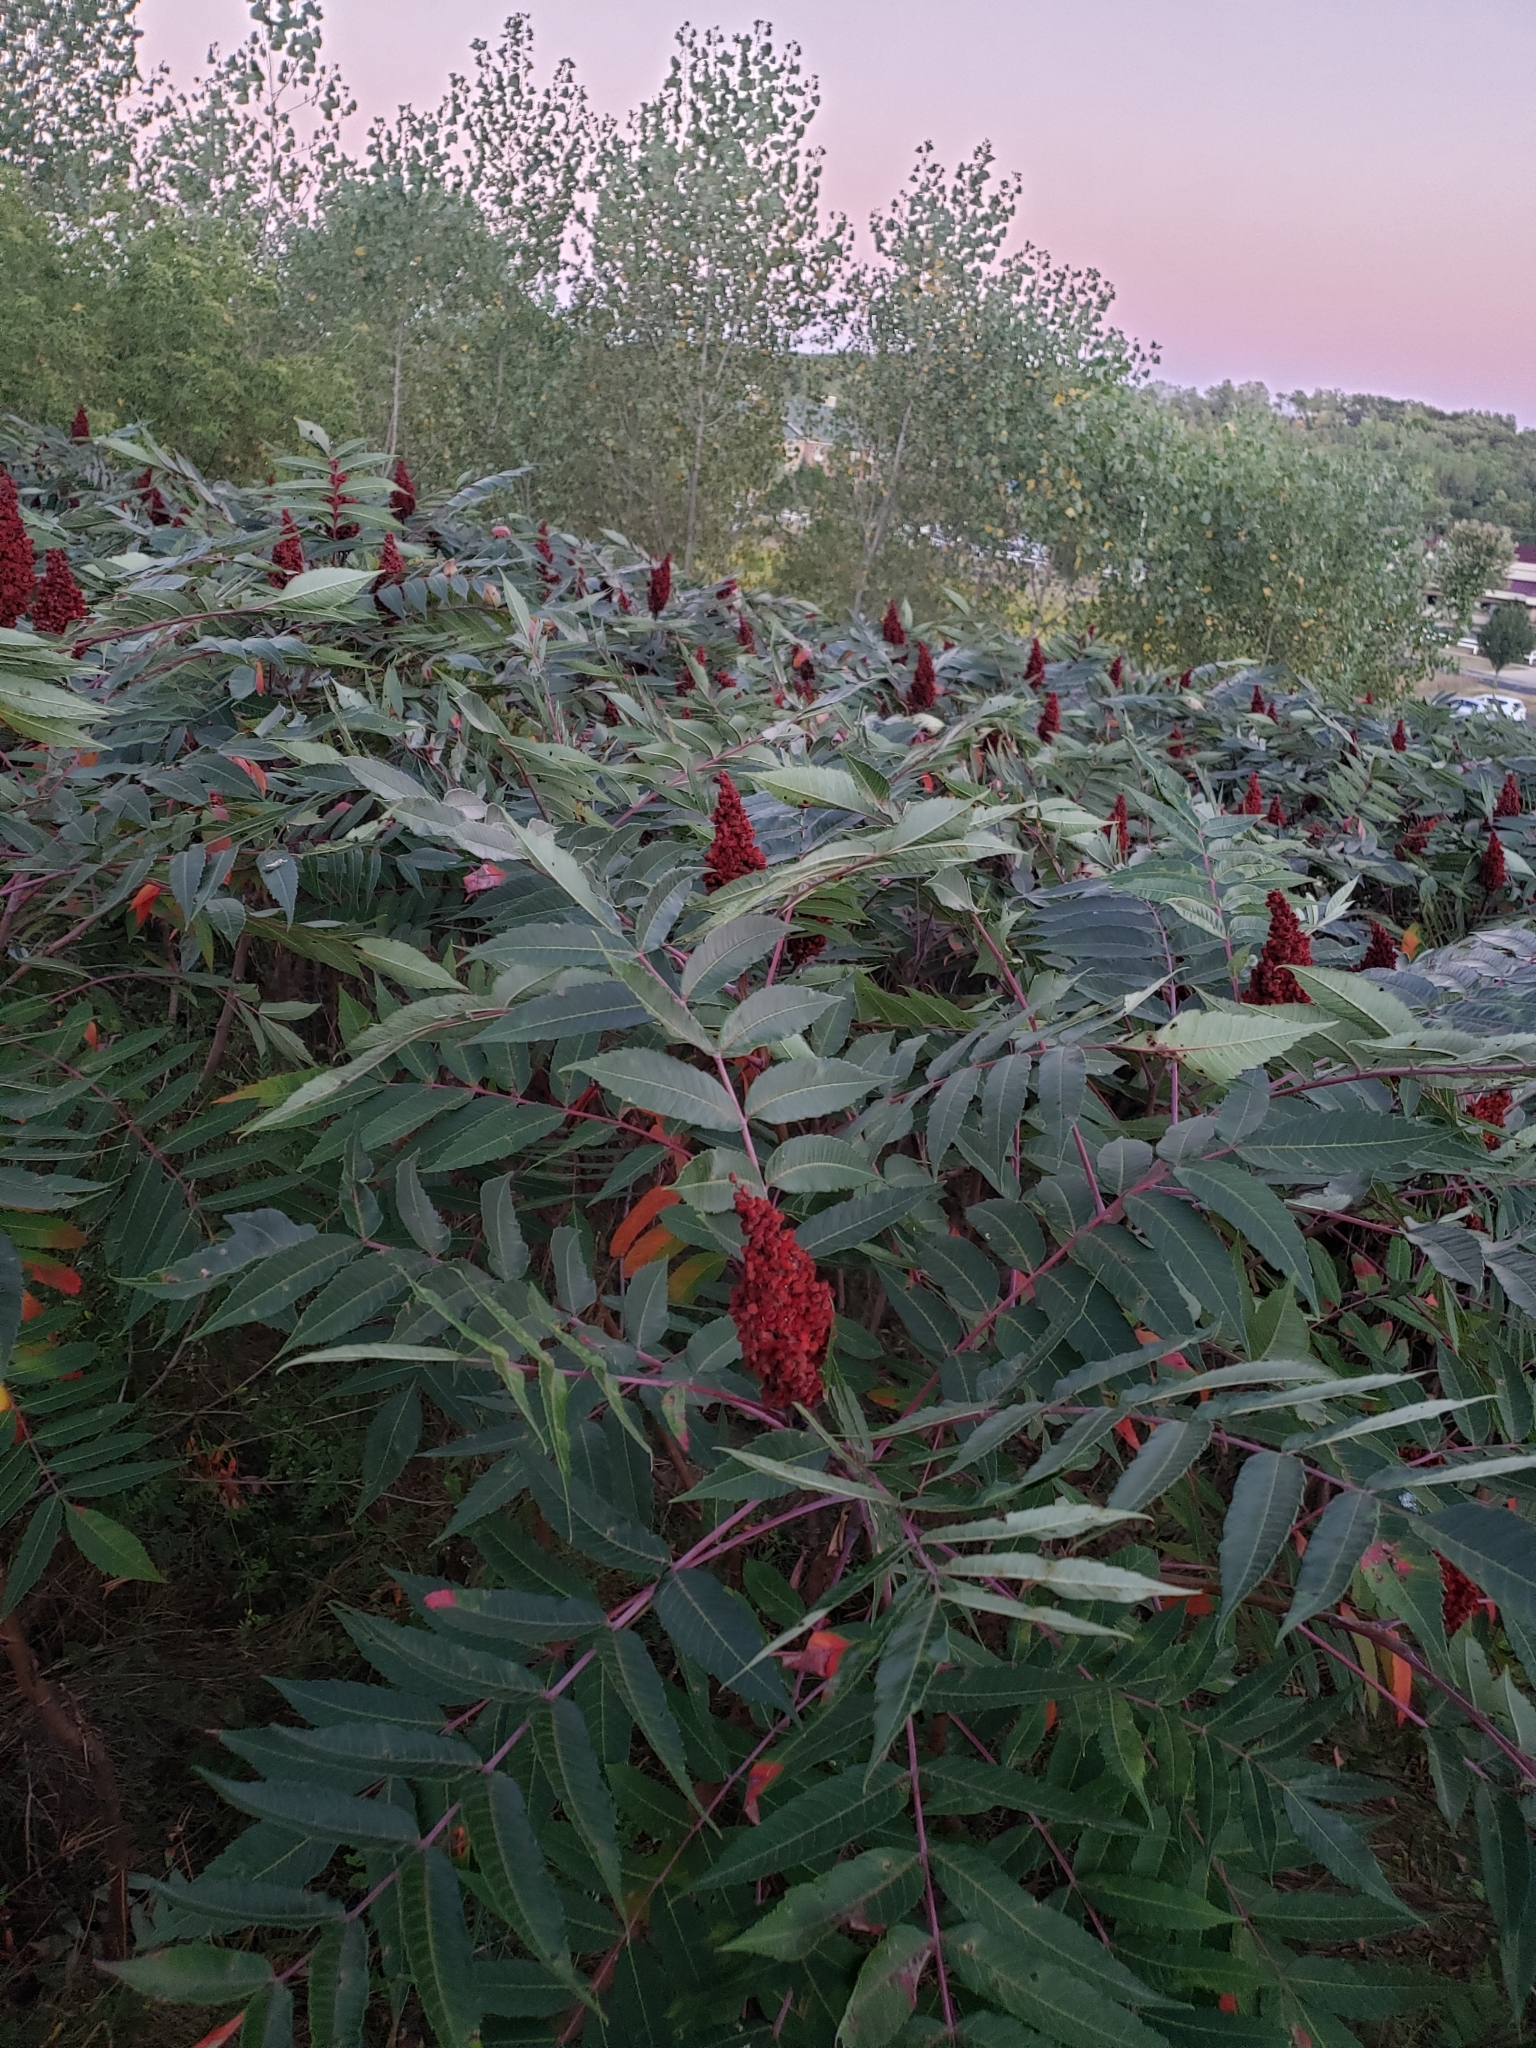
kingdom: Plantae
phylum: Tracheophyta
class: Magnoliopsida
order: Sapindales
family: Anacardiaceae
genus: Rhus
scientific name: Rhus glabra
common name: Scarlet sumac
